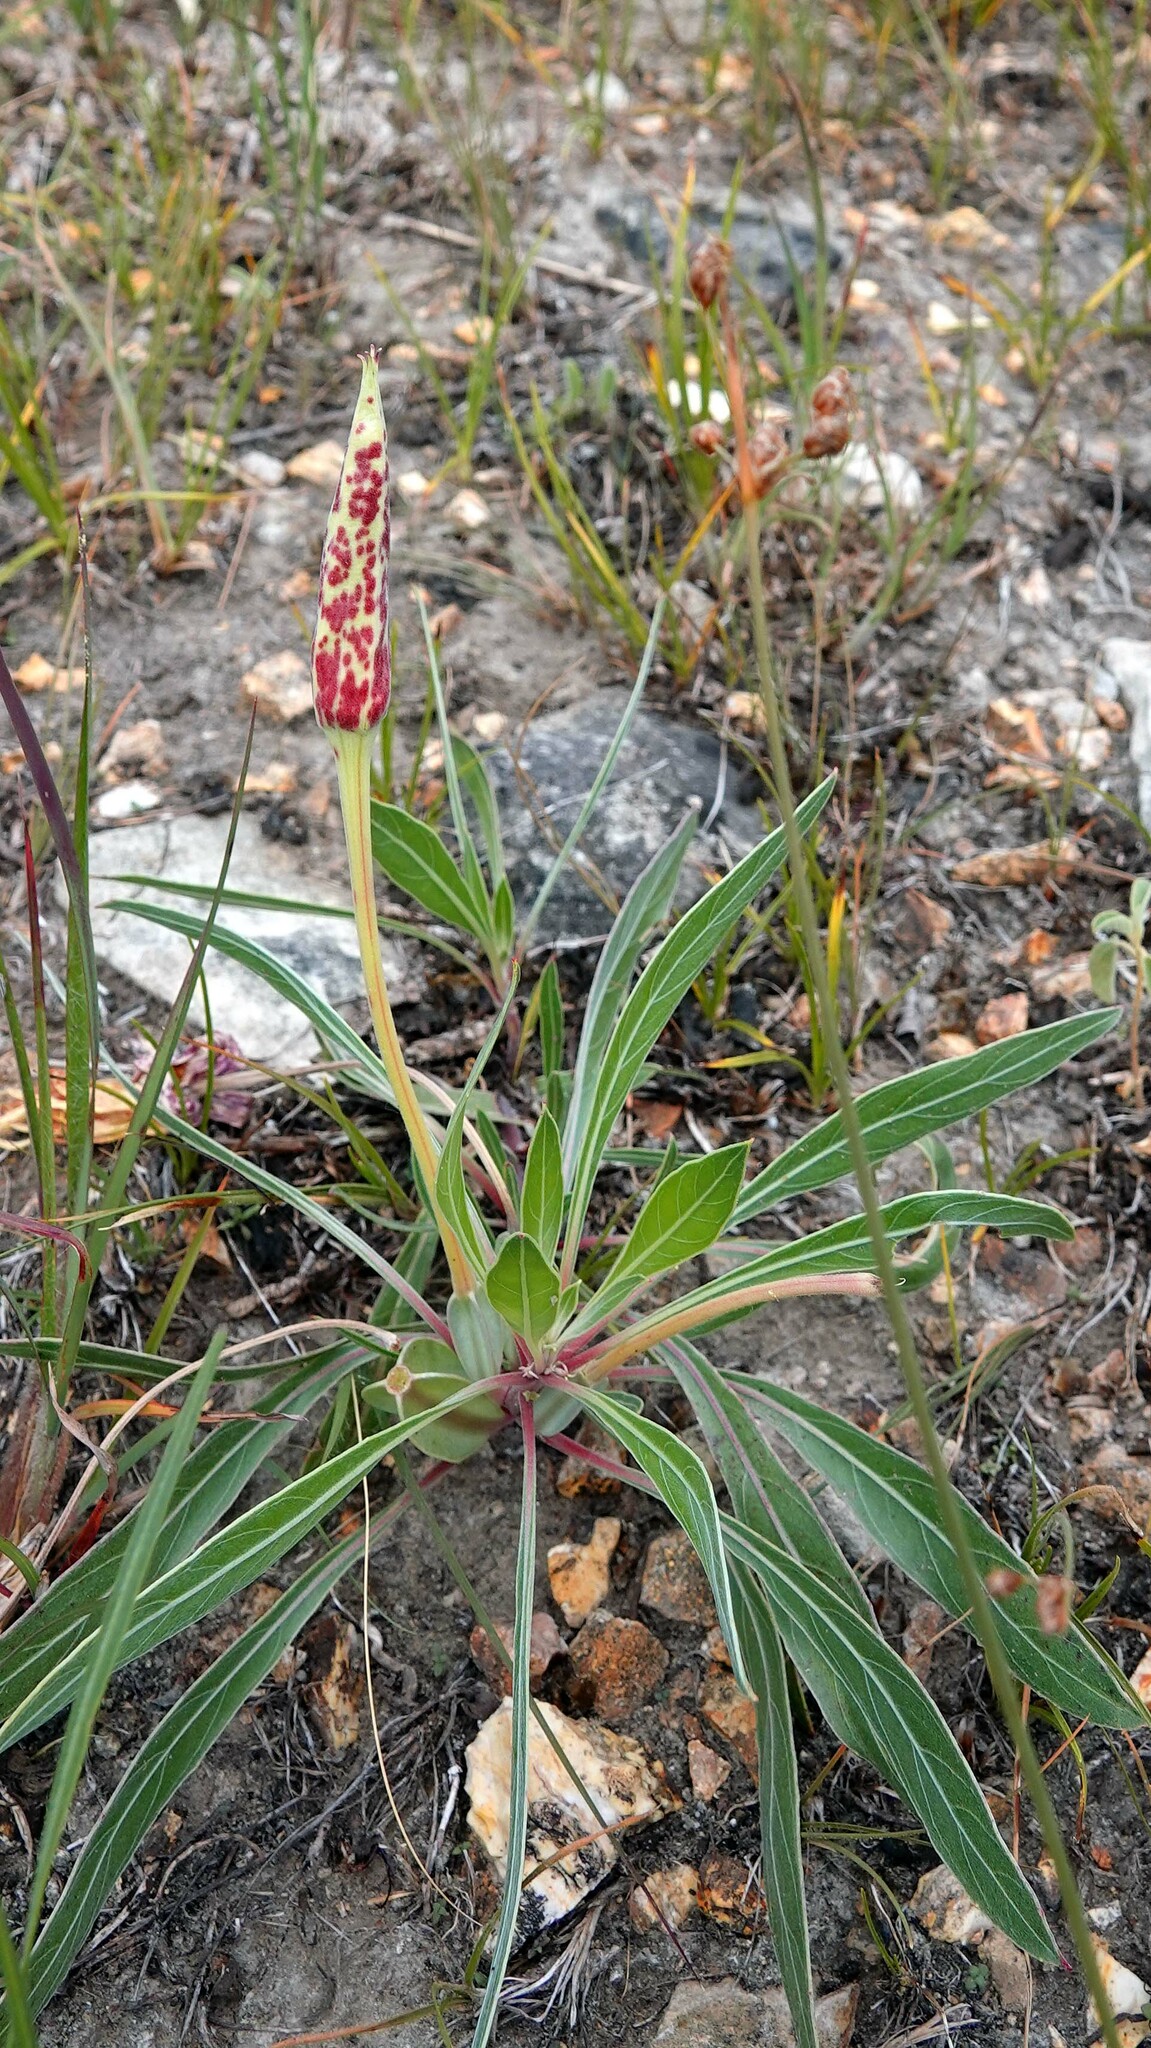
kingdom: Plantae
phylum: Tracheophyta
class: Magnoliopsida
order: Myrtales
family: Onagraceae
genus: Oenothera
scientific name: Oenothera macrocarpa
